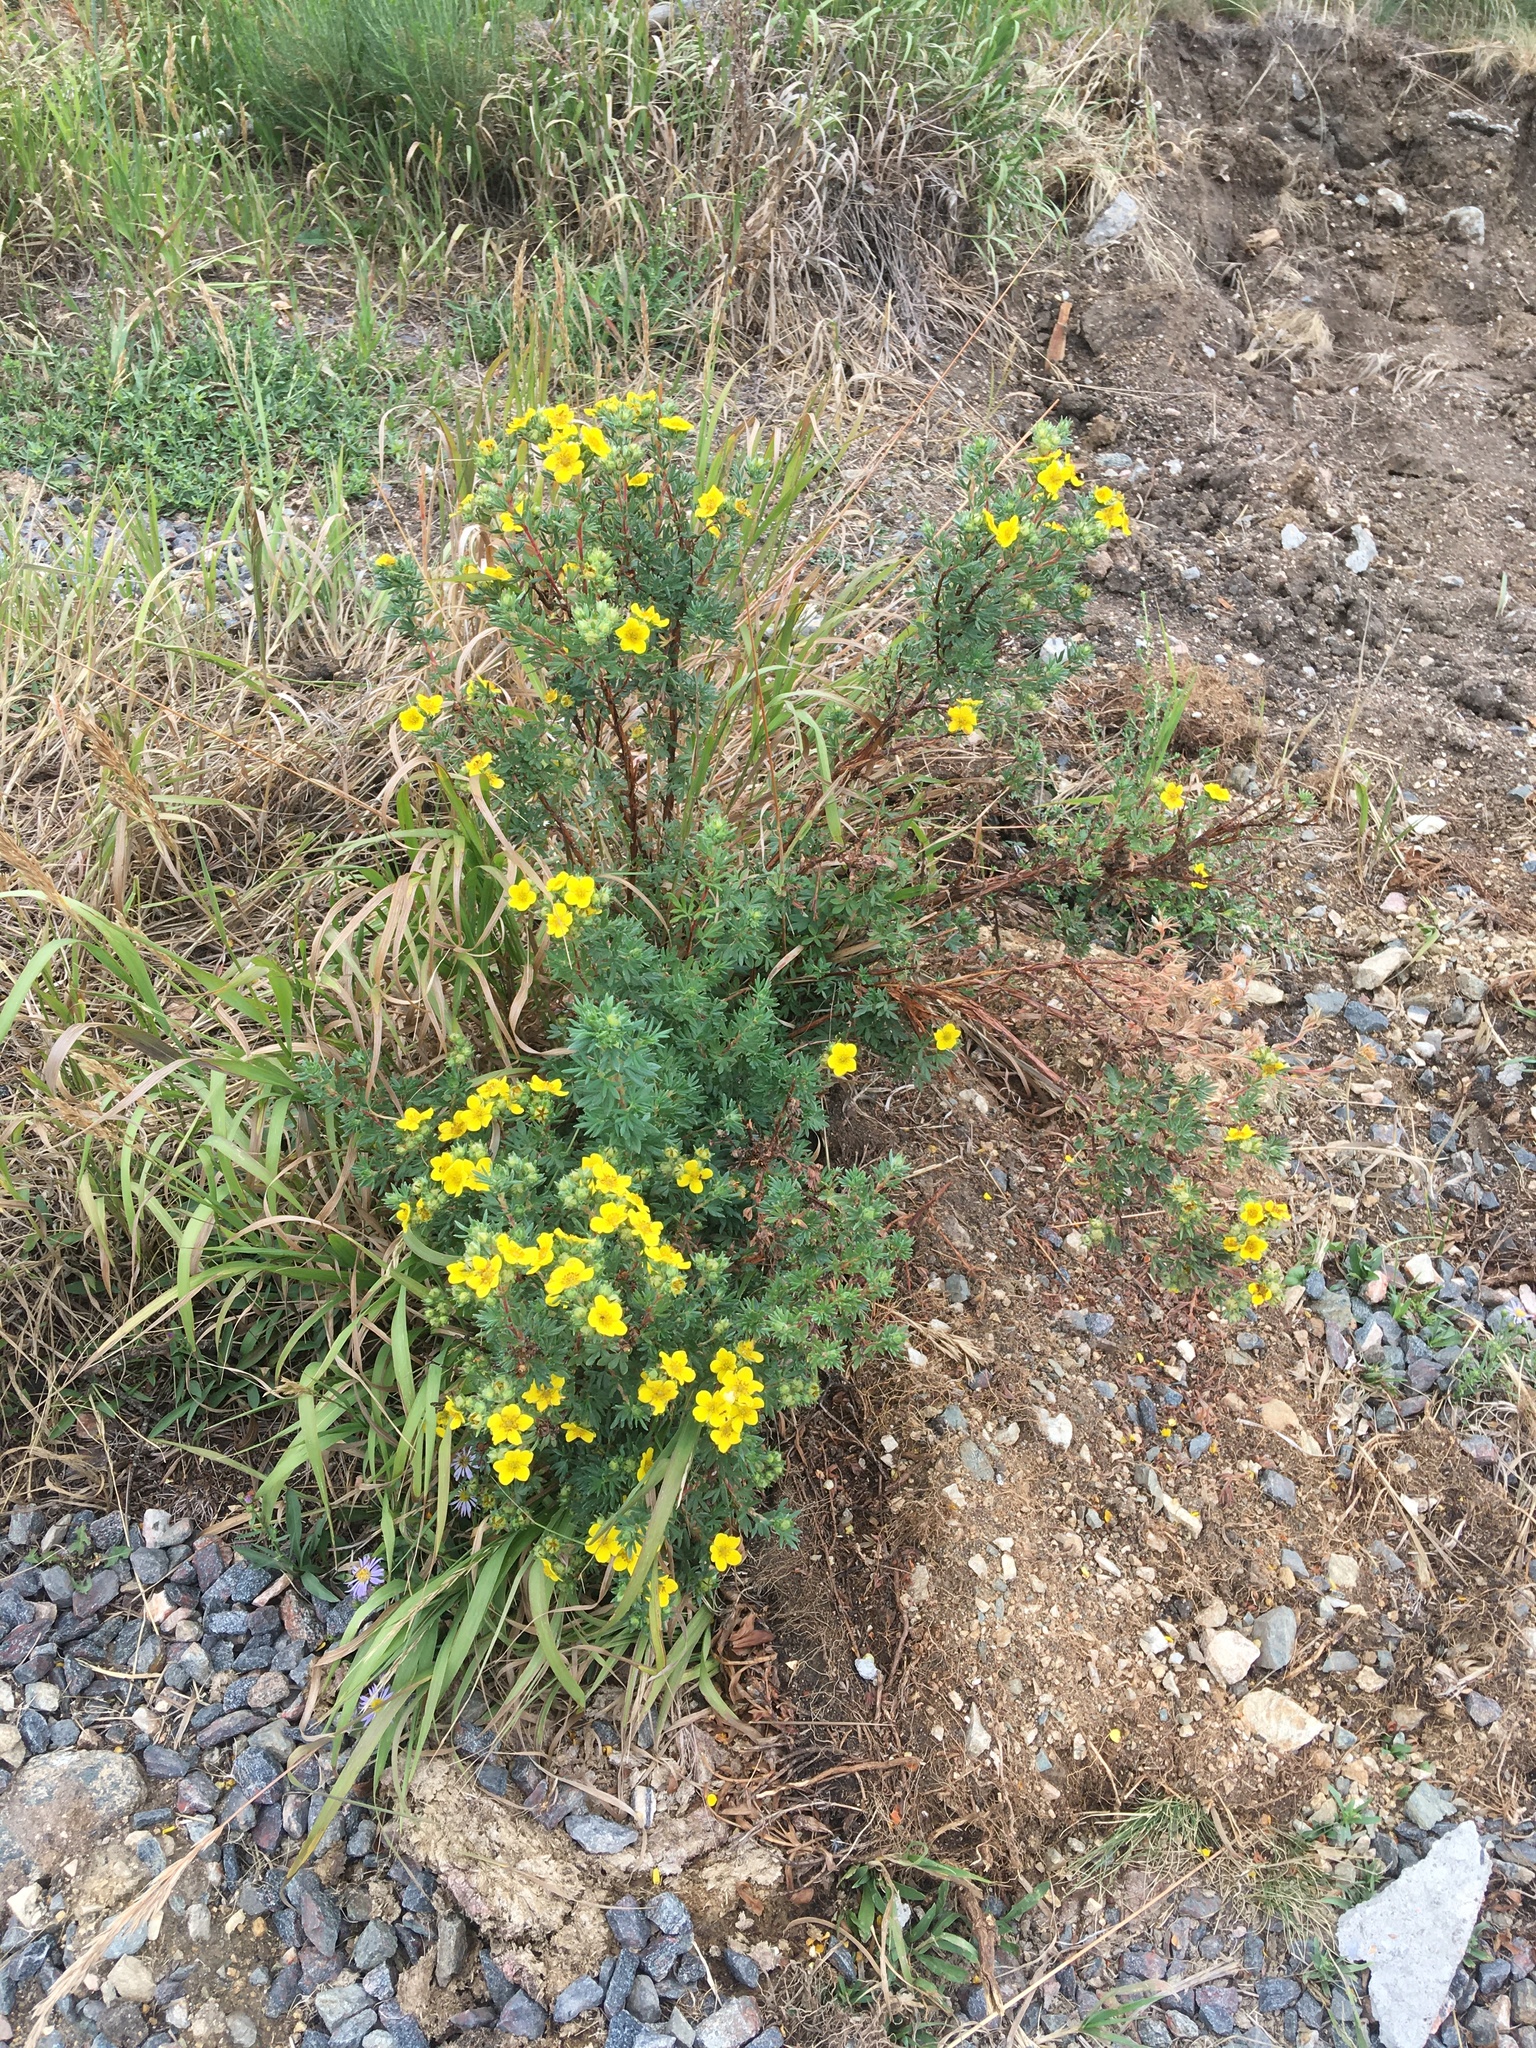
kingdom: Plantae
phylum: Tracheophyta
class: Magnoliopsida
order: Rosales
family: Rosaceae
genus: Dasiphora
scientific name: Dasiphora fruticosa
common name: Shrubby cinquefoil
